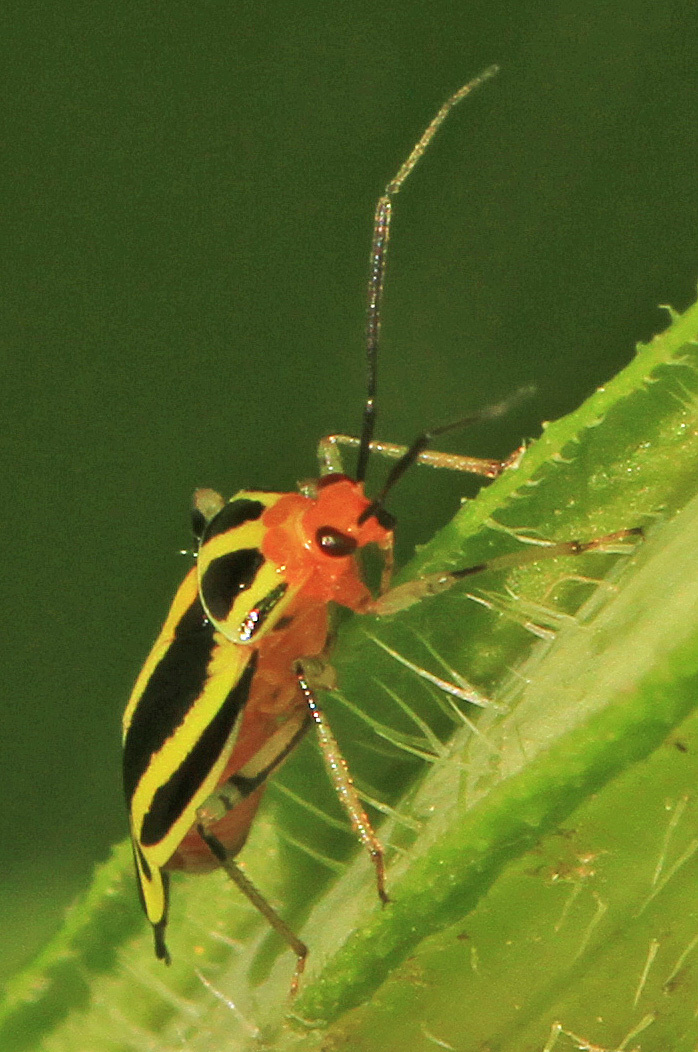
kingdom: Animalia
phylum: Arthropoda
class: Insecta
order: Hemiptera
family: Miridae
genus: Poecilocapsus
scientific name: Poecilocapsus lineatus
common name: Four-lined plant bug
